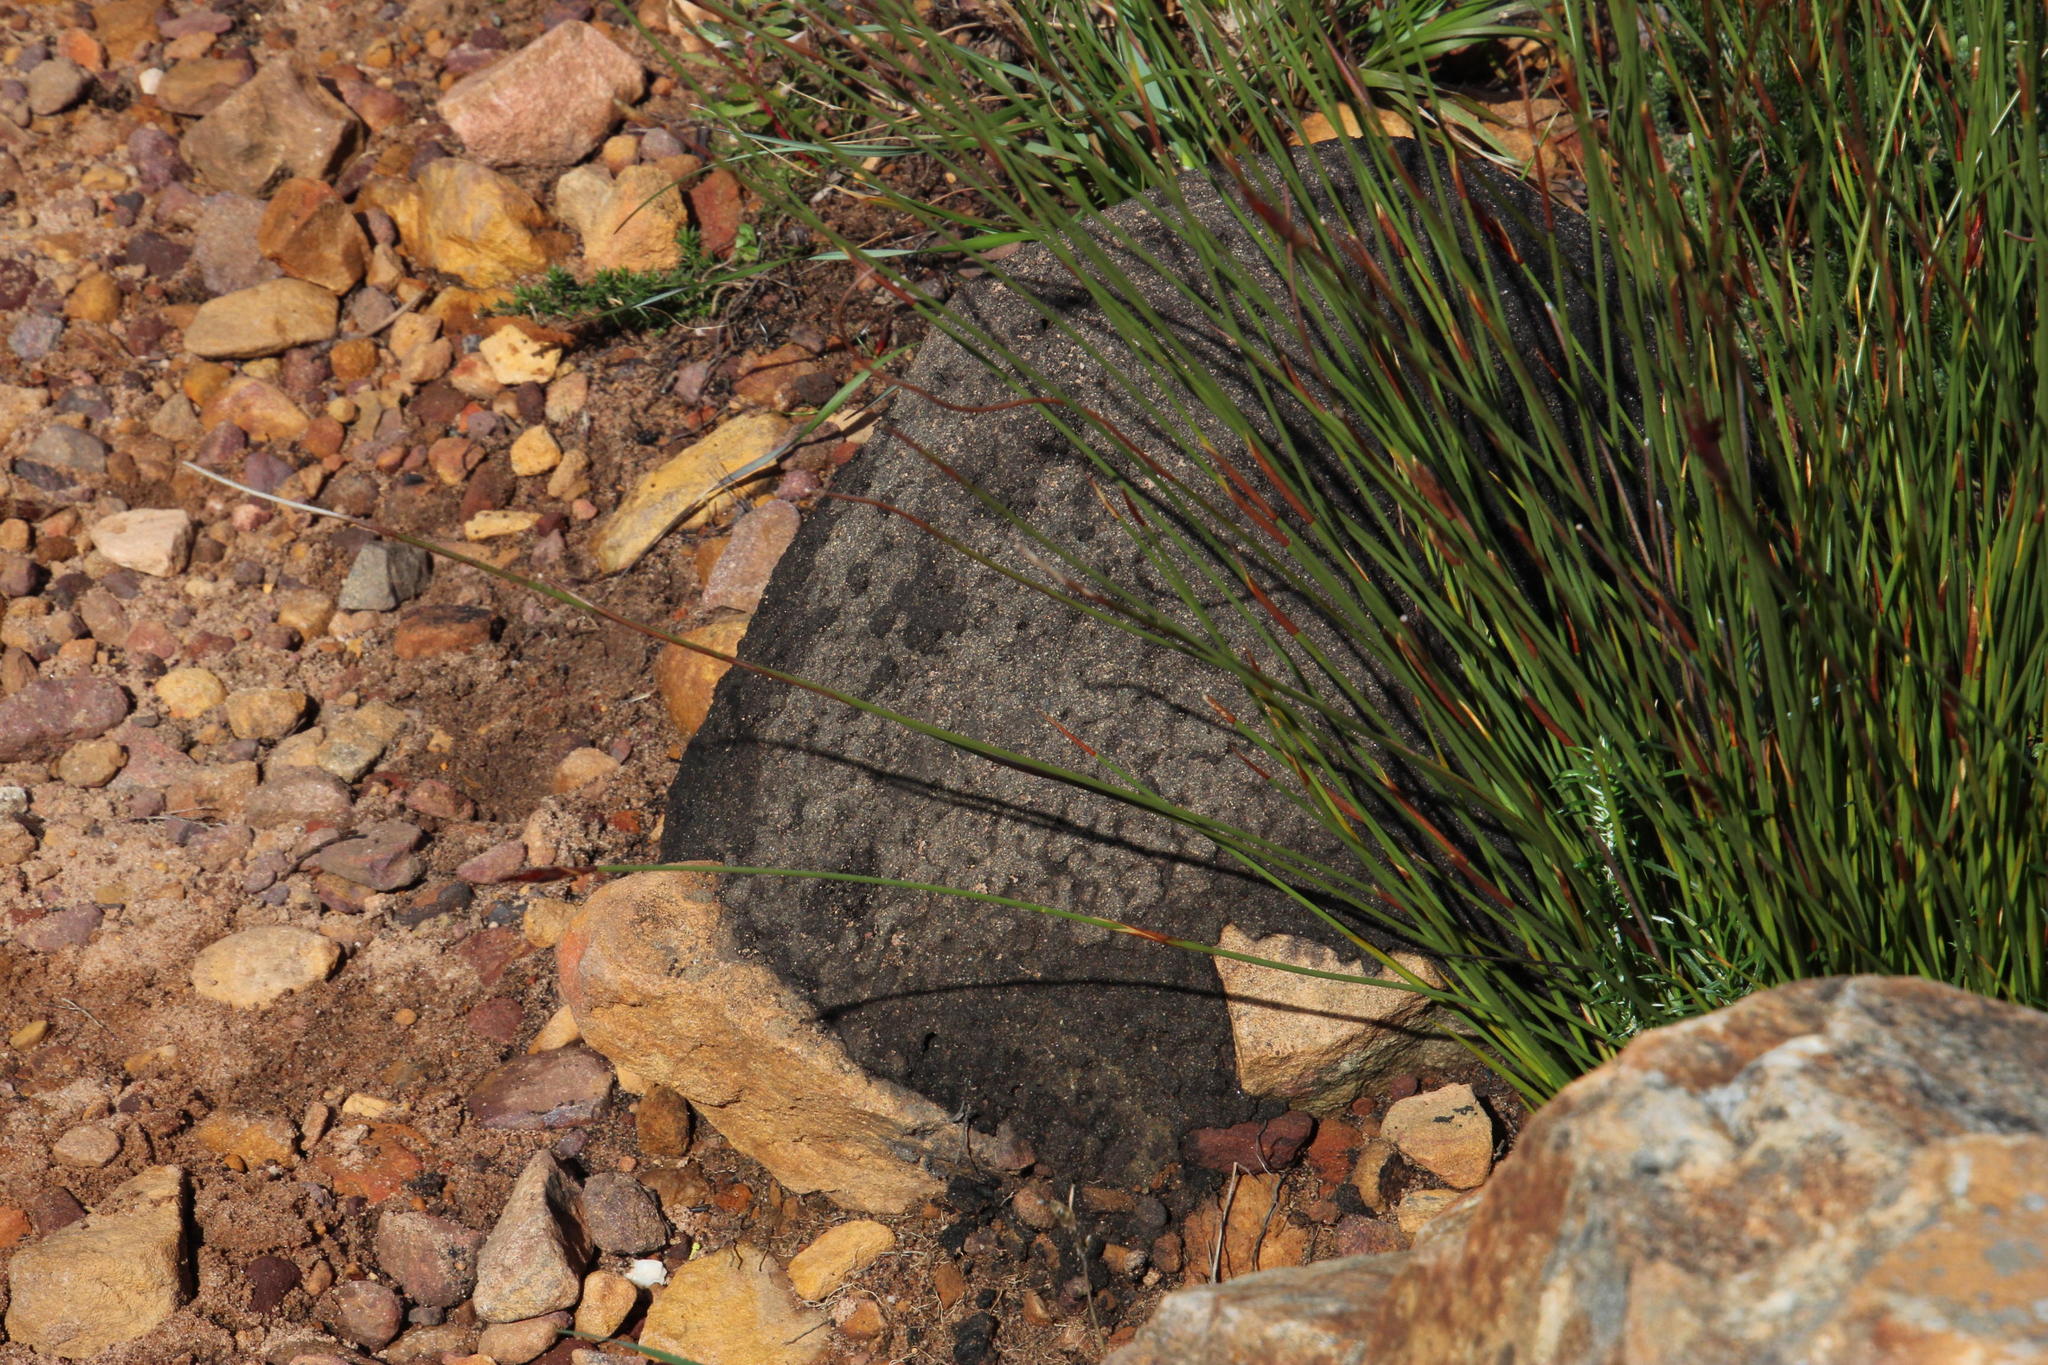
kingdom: Animalia
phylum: Arthropoda
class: Insecta
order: Blattodea
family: Termitidae
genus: Amitermes
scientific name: Amitermes hastatus
